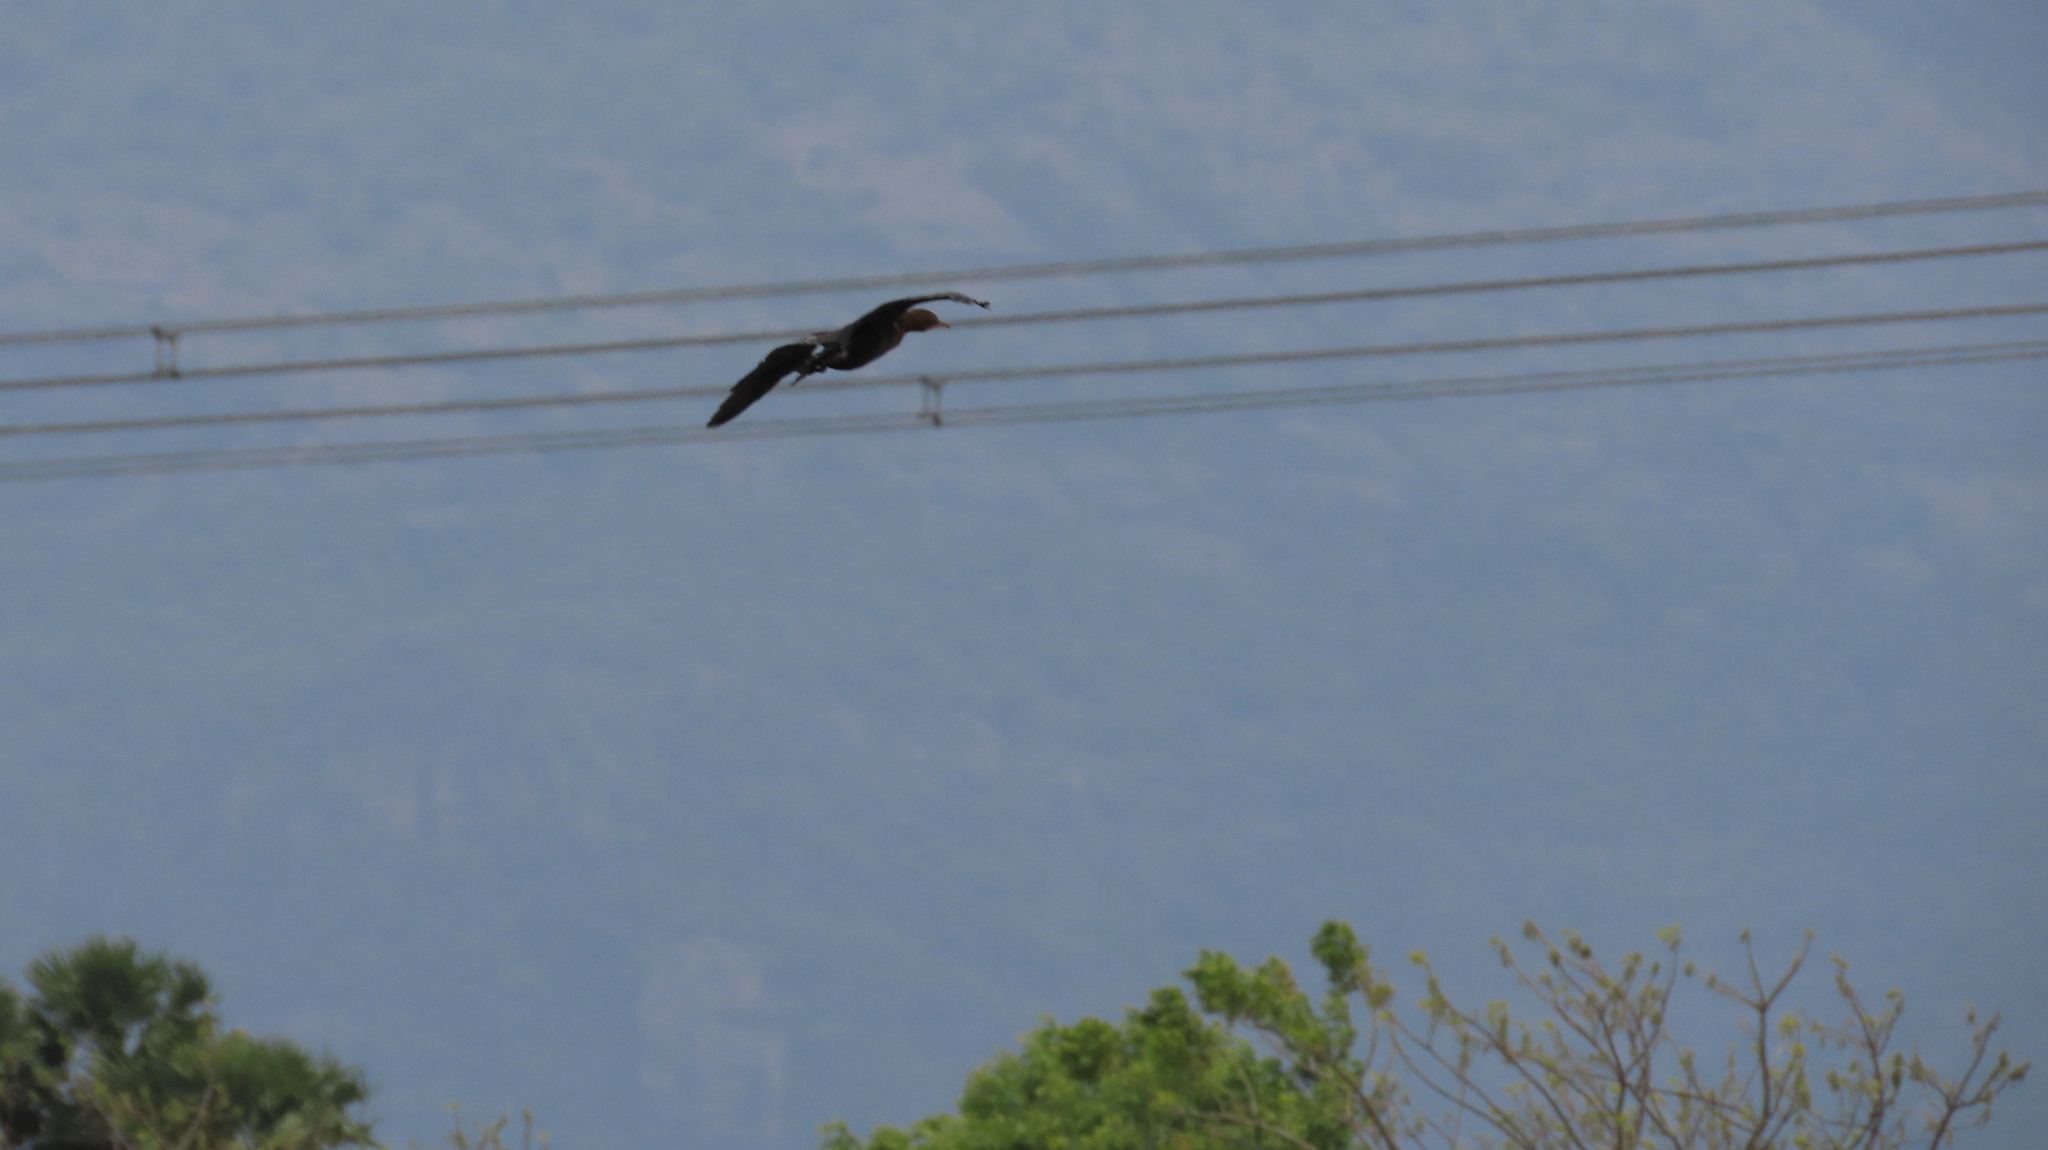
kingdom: Animalia
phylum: Chordata
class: Aves
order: Suliformes
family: Phalacrocoracidae
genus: Microcarbo
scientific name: Microcarbo niger
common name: Little cormorant
